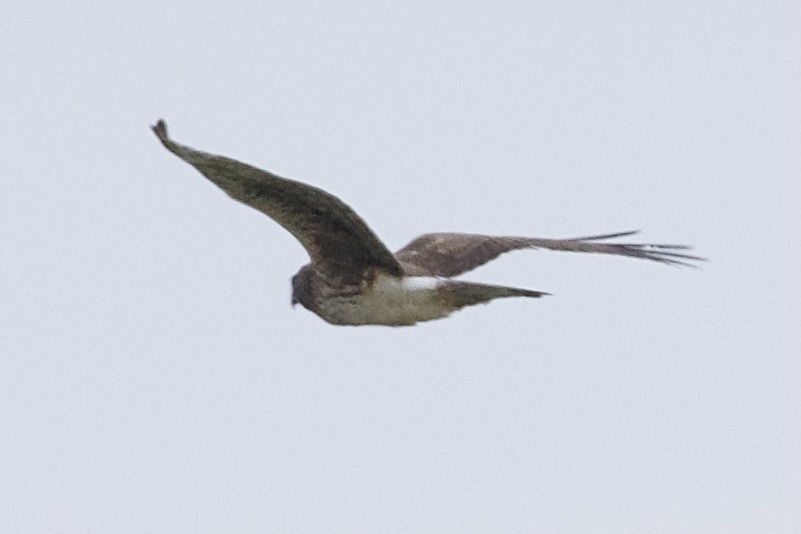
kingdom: Animalia
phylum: Chordata
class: Aves
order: Accipitriformes
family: Accipitridae
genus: Circus
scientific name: Circus cyaneus
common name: Hen harrier
